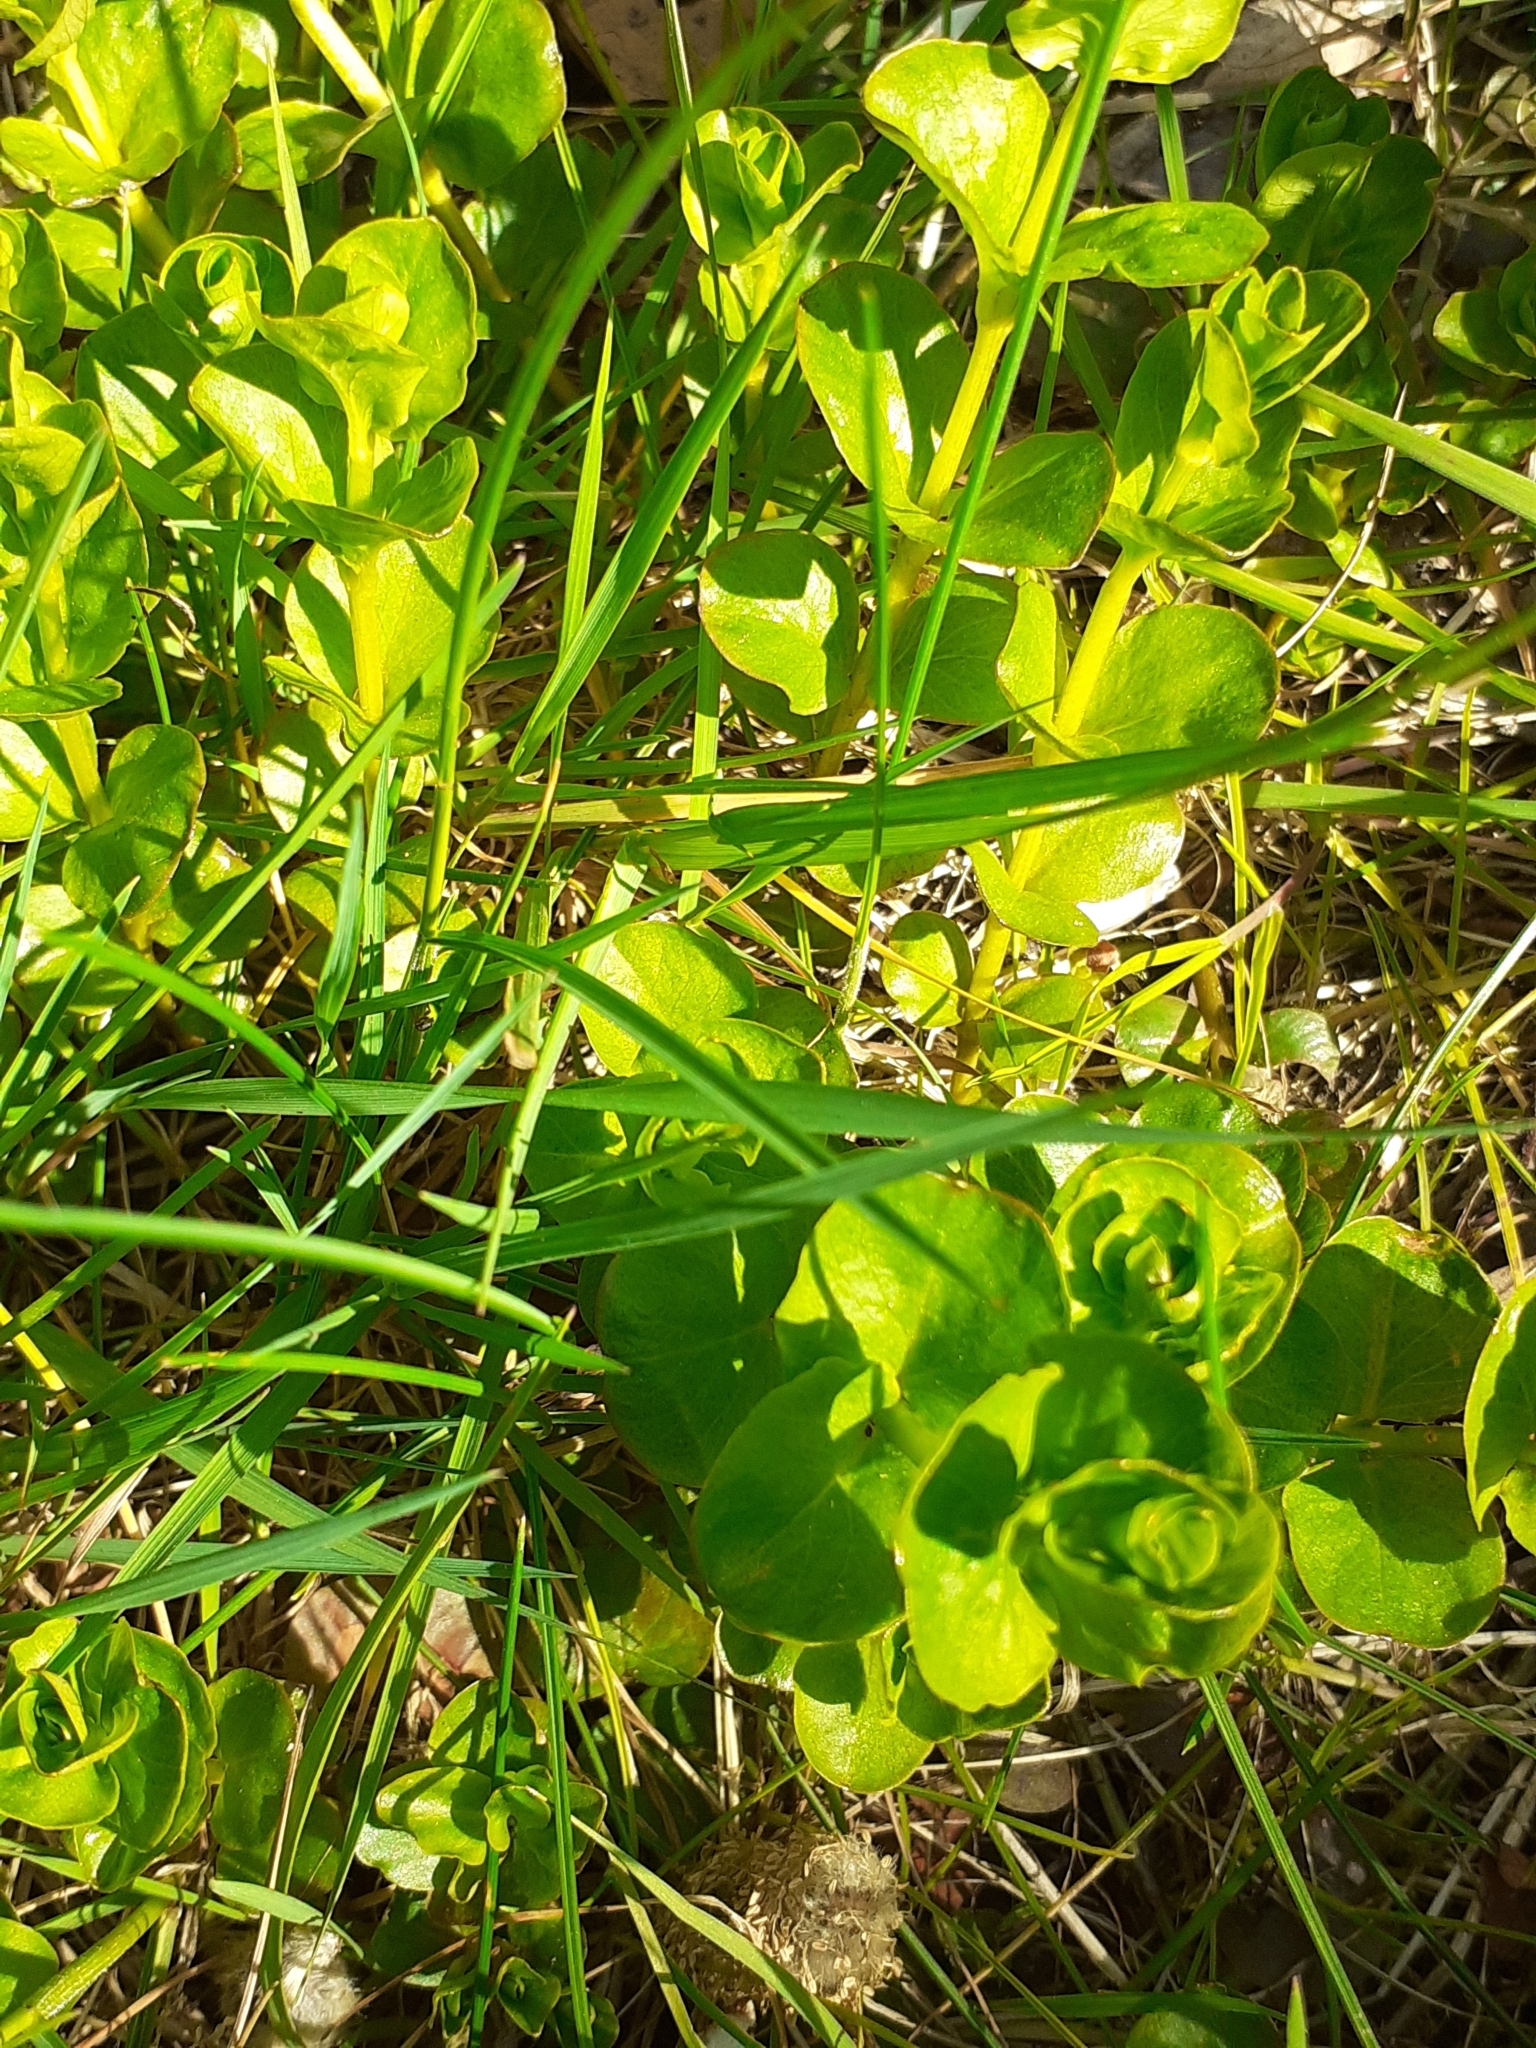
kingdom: Plantae
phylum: Tracheophyta
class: Magnoliopsida
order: Ericales
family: Primulaceae
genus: Lysimachia
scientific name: Lysimachia nummularia
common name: Moneywort
